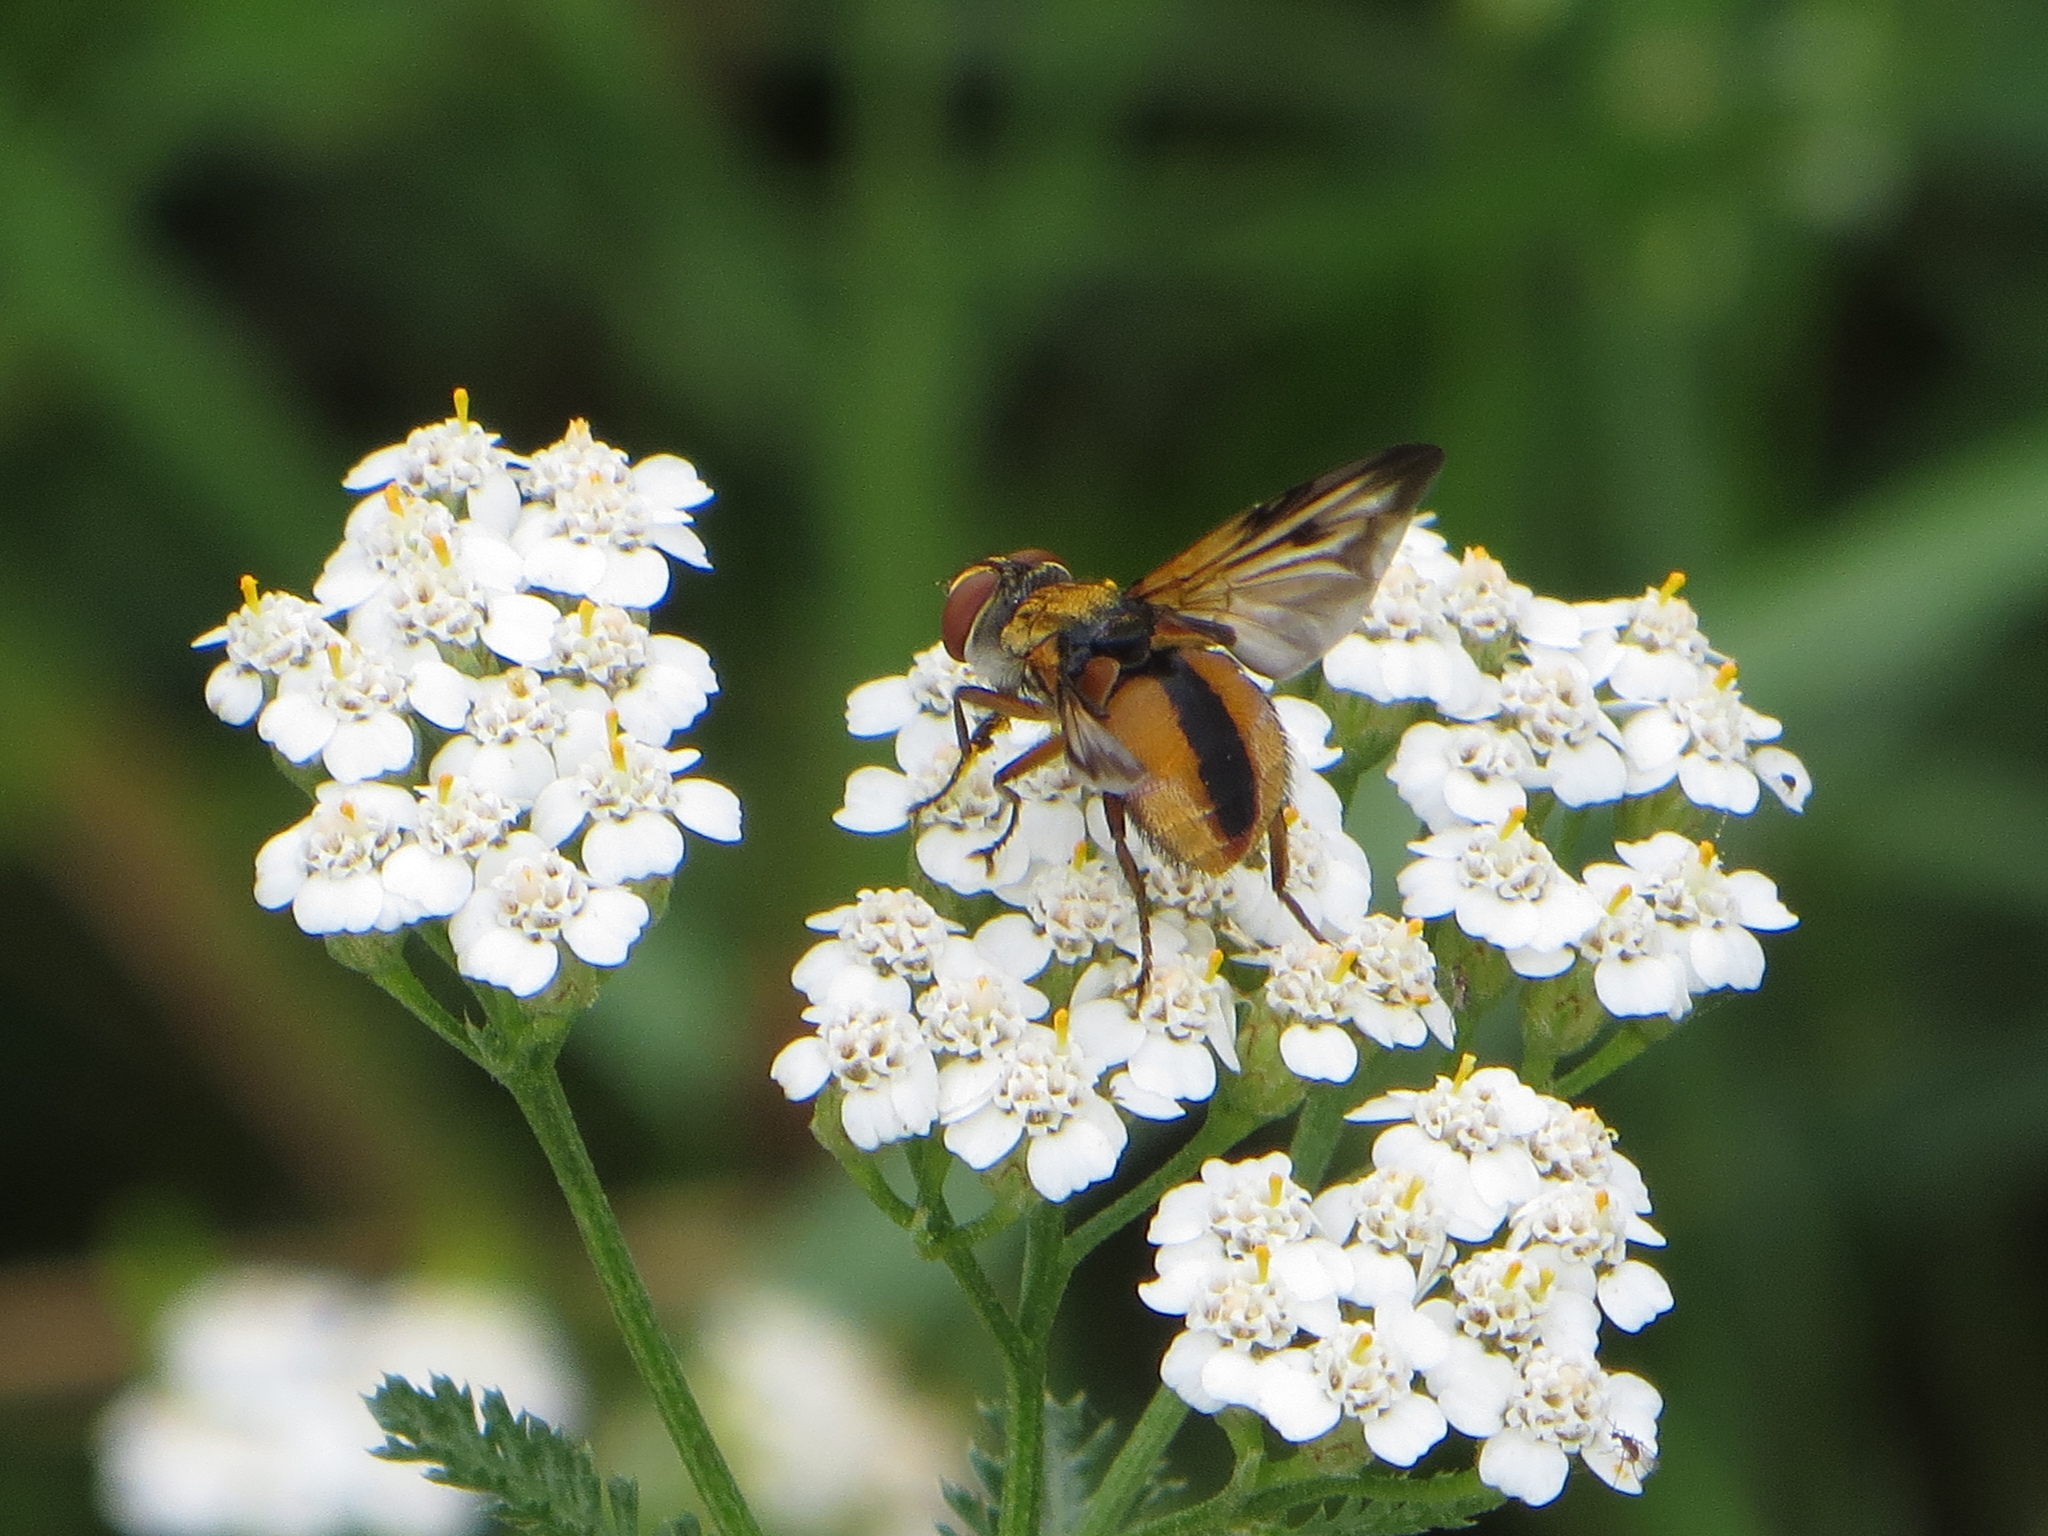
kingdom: Animalia
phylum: Arthropoda
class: Insecta
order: Diptera
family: Tachinidae
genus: Ectophasia
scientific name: Ectophasia crassipennis
